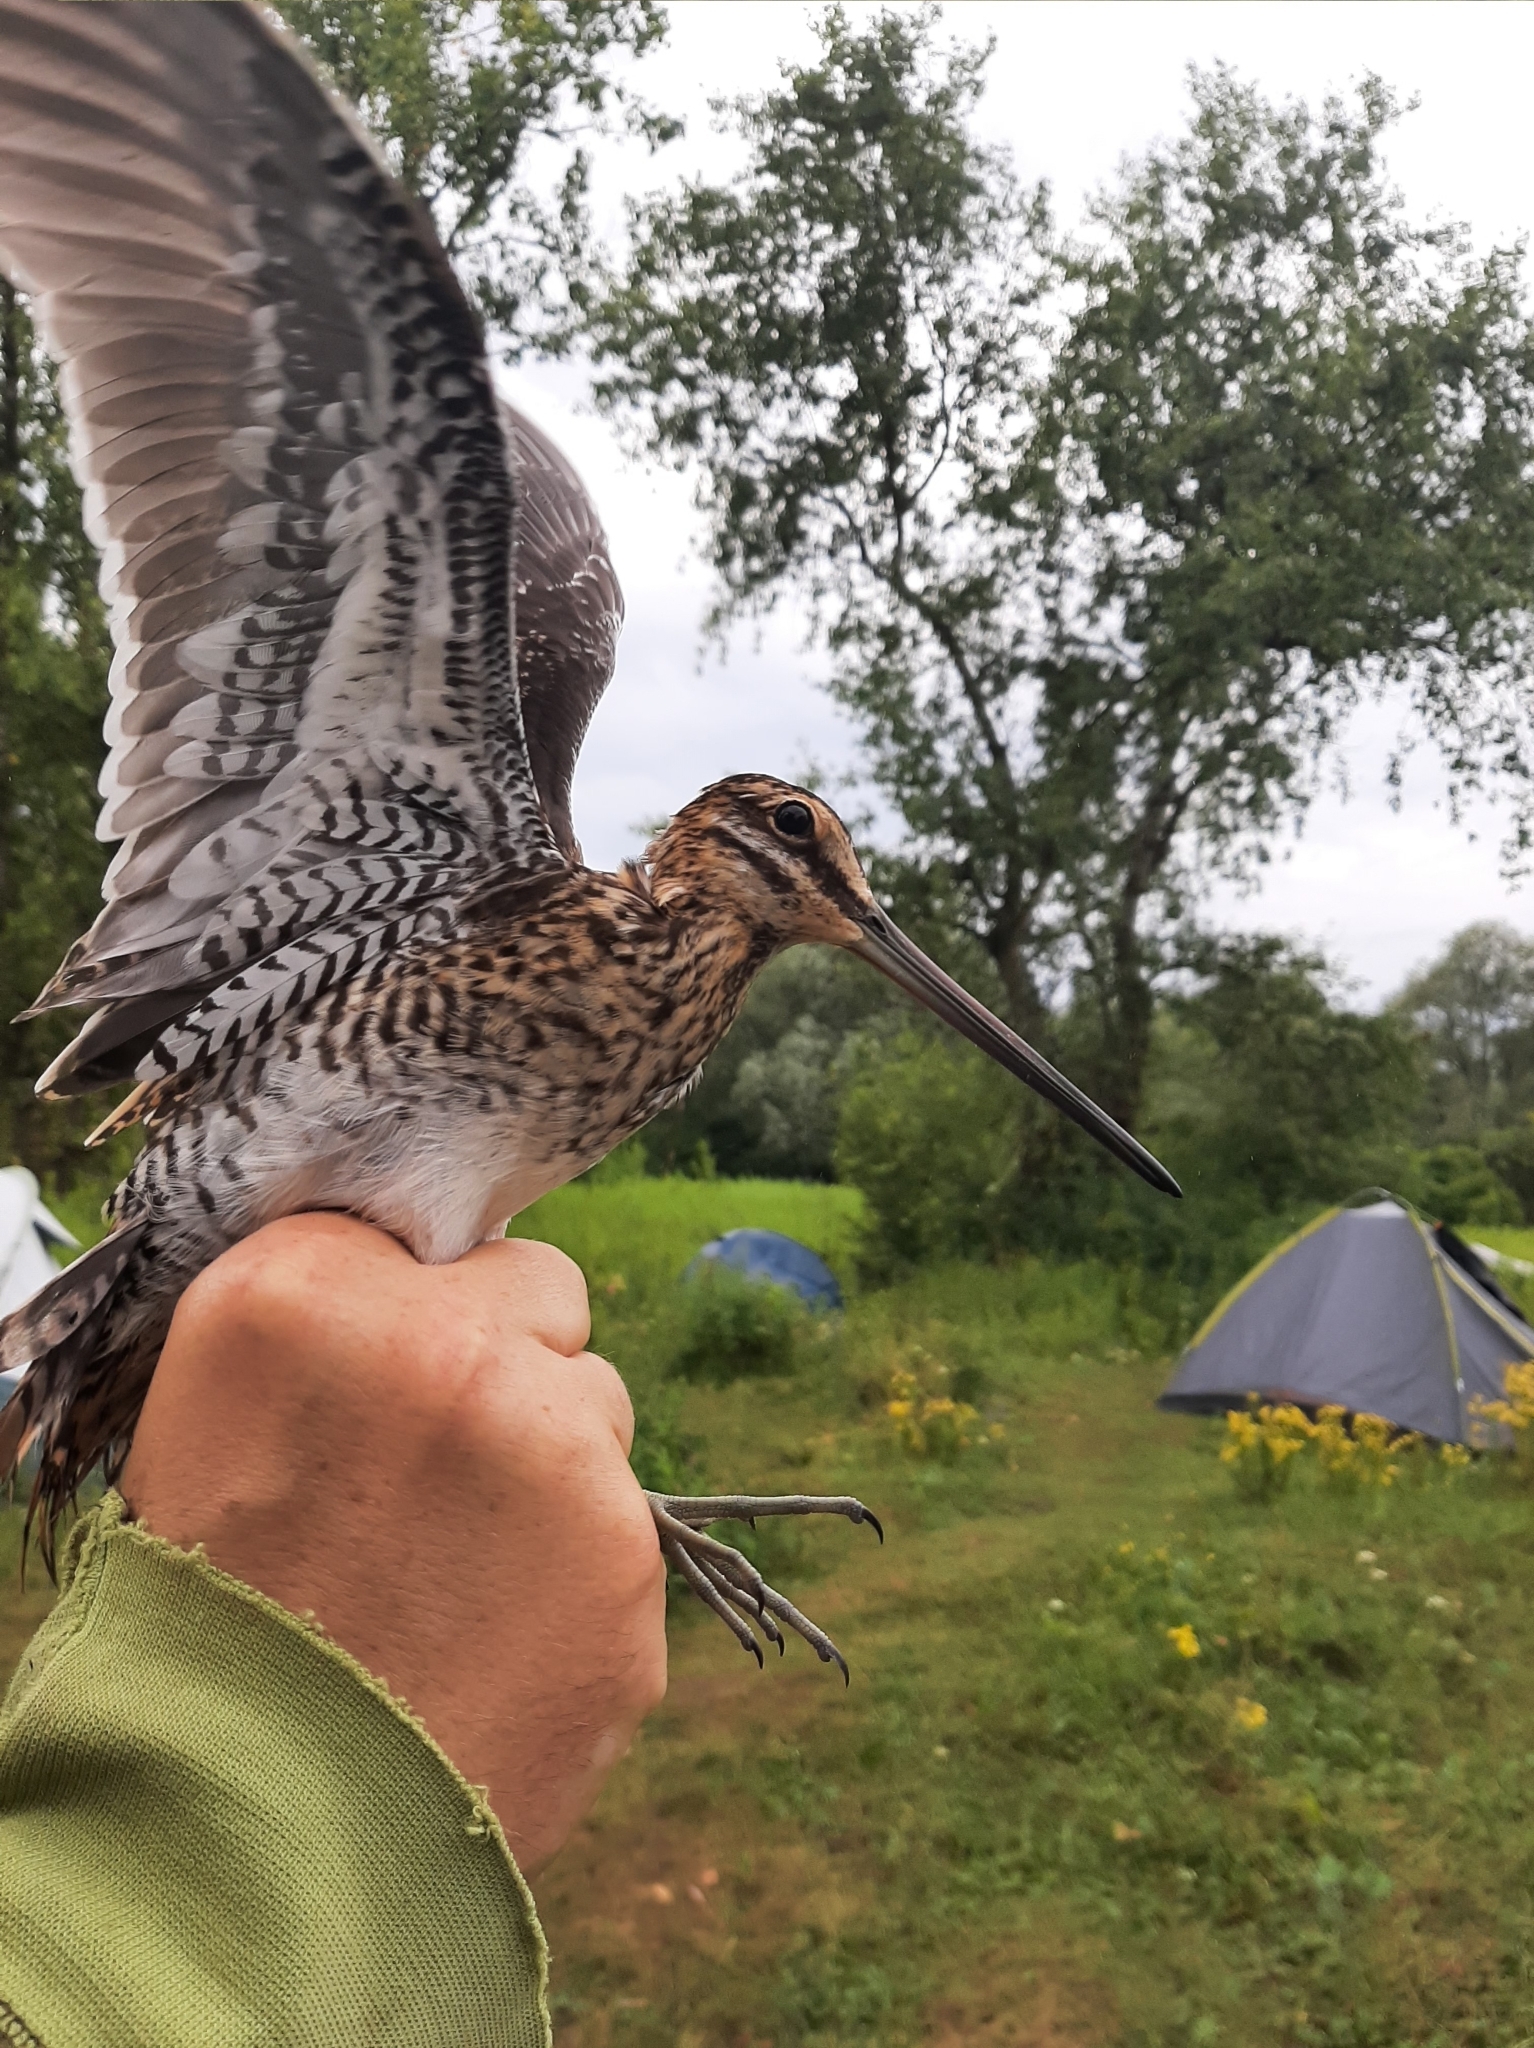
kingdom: Animalia
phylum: Chordata
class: Aves
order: Charadriiformes
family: Scolopacidae
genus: Gallinago
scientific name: Gallinago gallinago
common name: Common snipe
